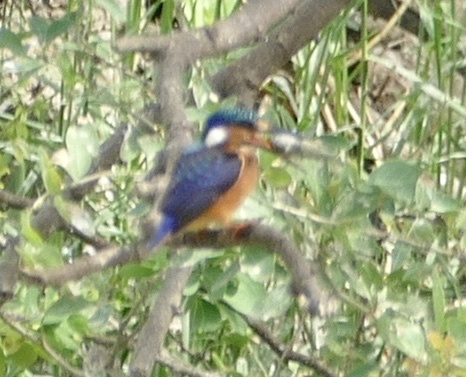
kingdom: Animalia
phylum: Chordata
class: Aves
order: Coraciiformes
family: Alcedinidae
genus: Corythornis
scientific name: Corythornis cristatus
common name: Malachite kingfisher
